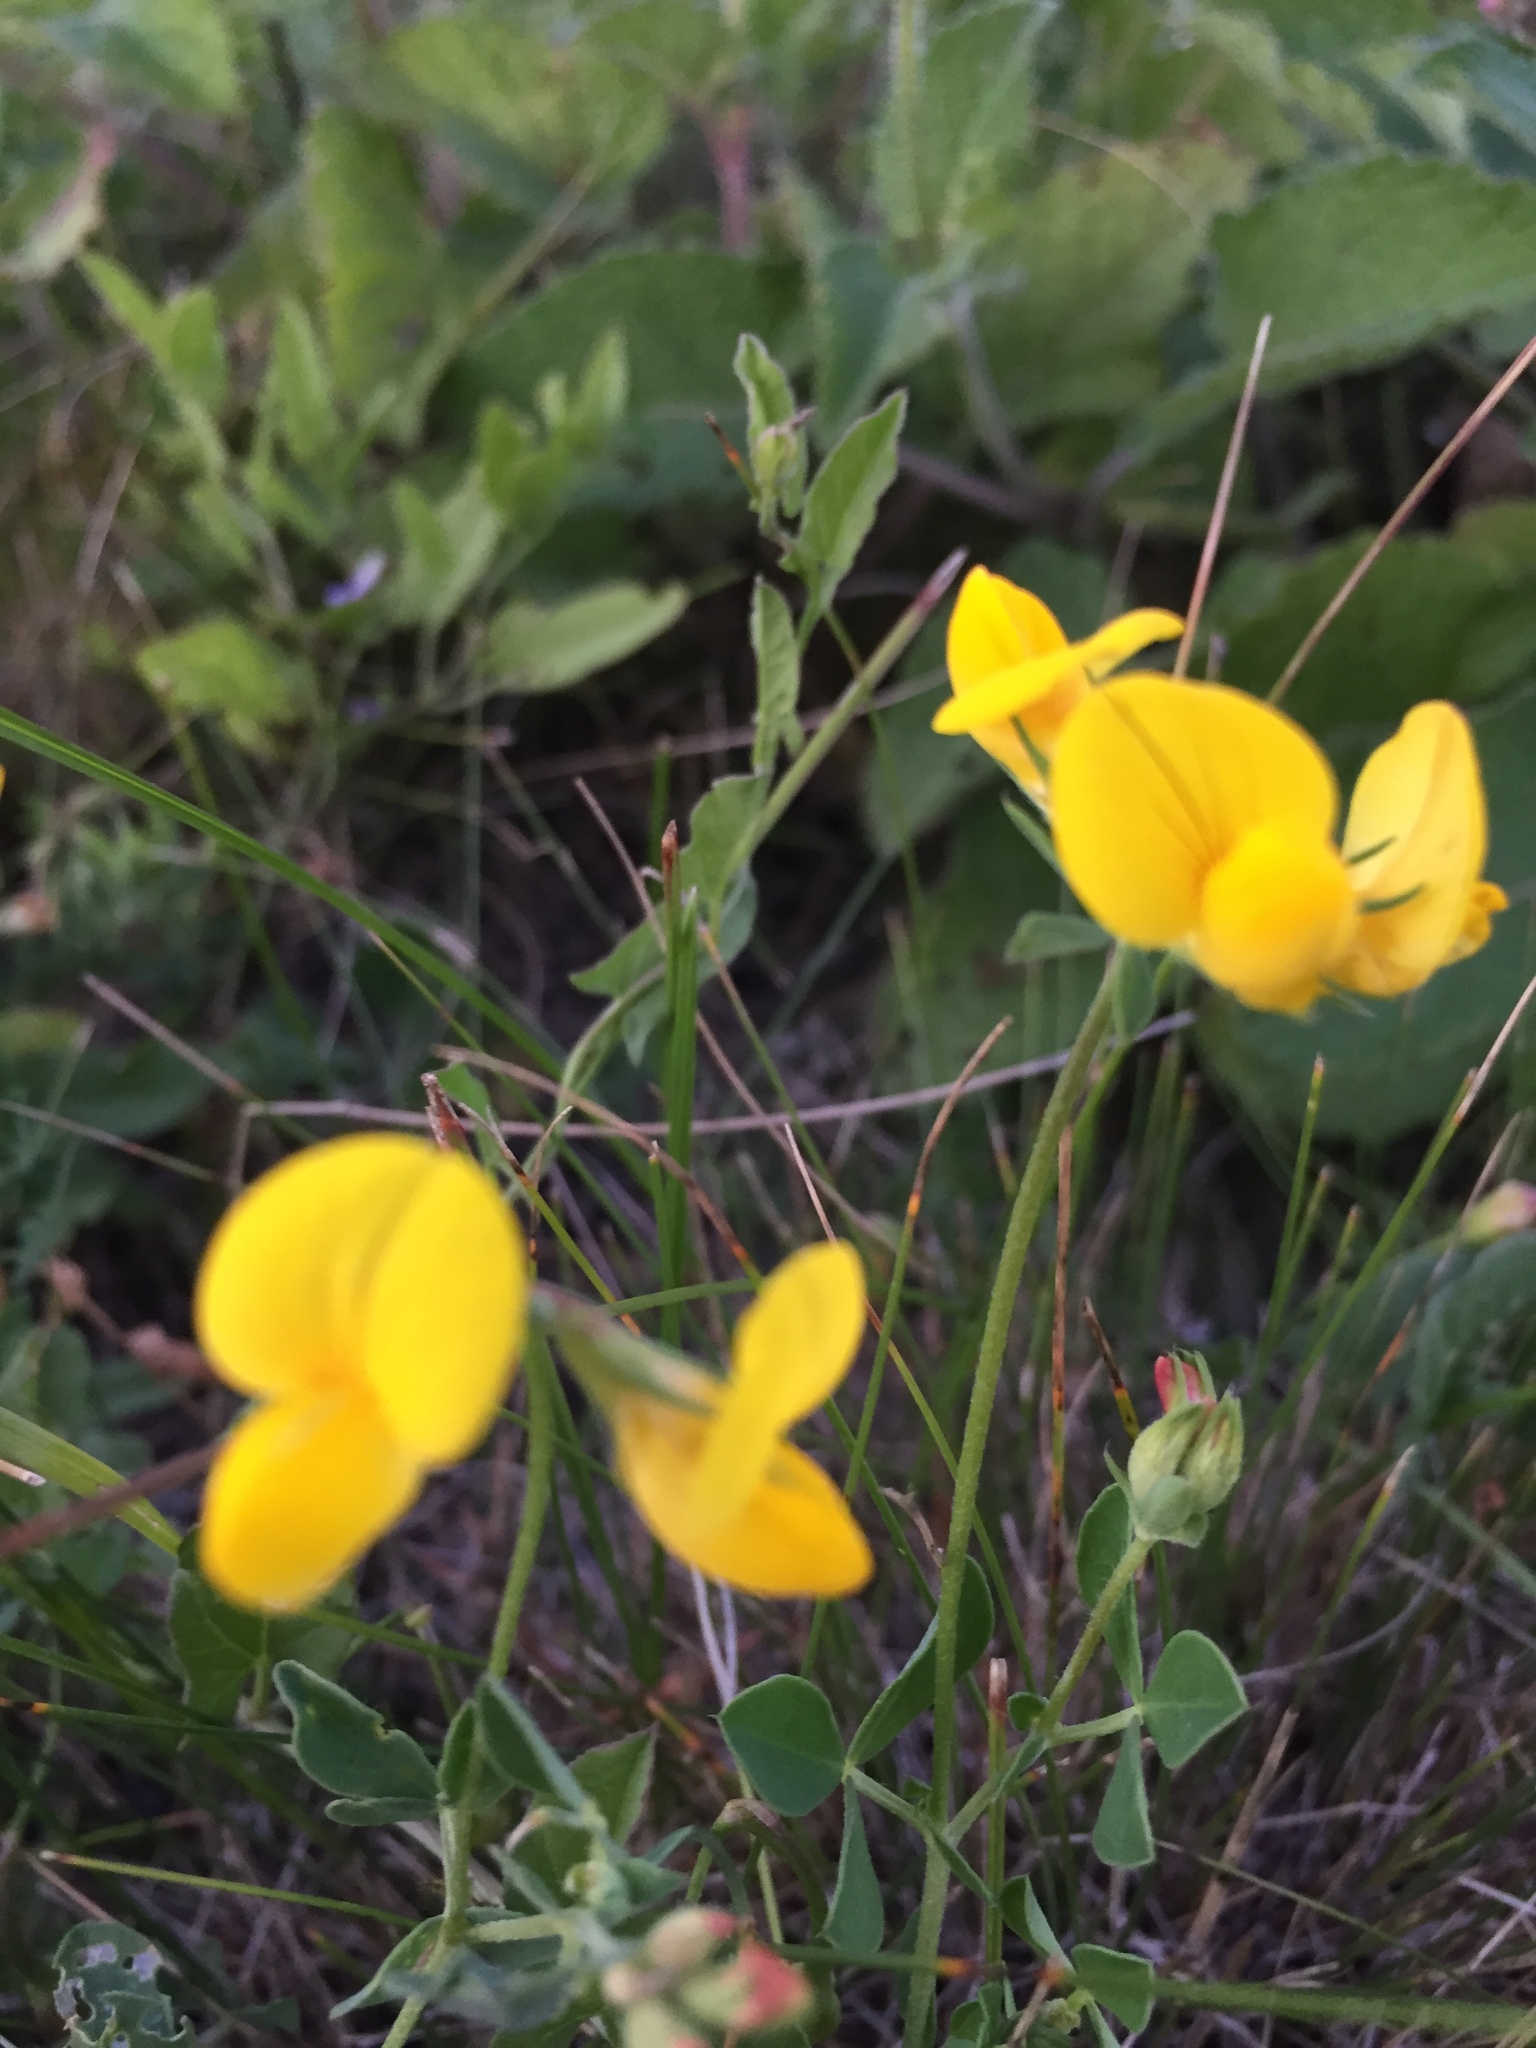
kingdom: Plantae
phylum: Tracheophyta
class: Magnoliopsida
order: Fabales
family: Fabaceae
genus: Lotus
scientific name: Lotus corniculatus
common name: Common bird's-foot-trefoil
